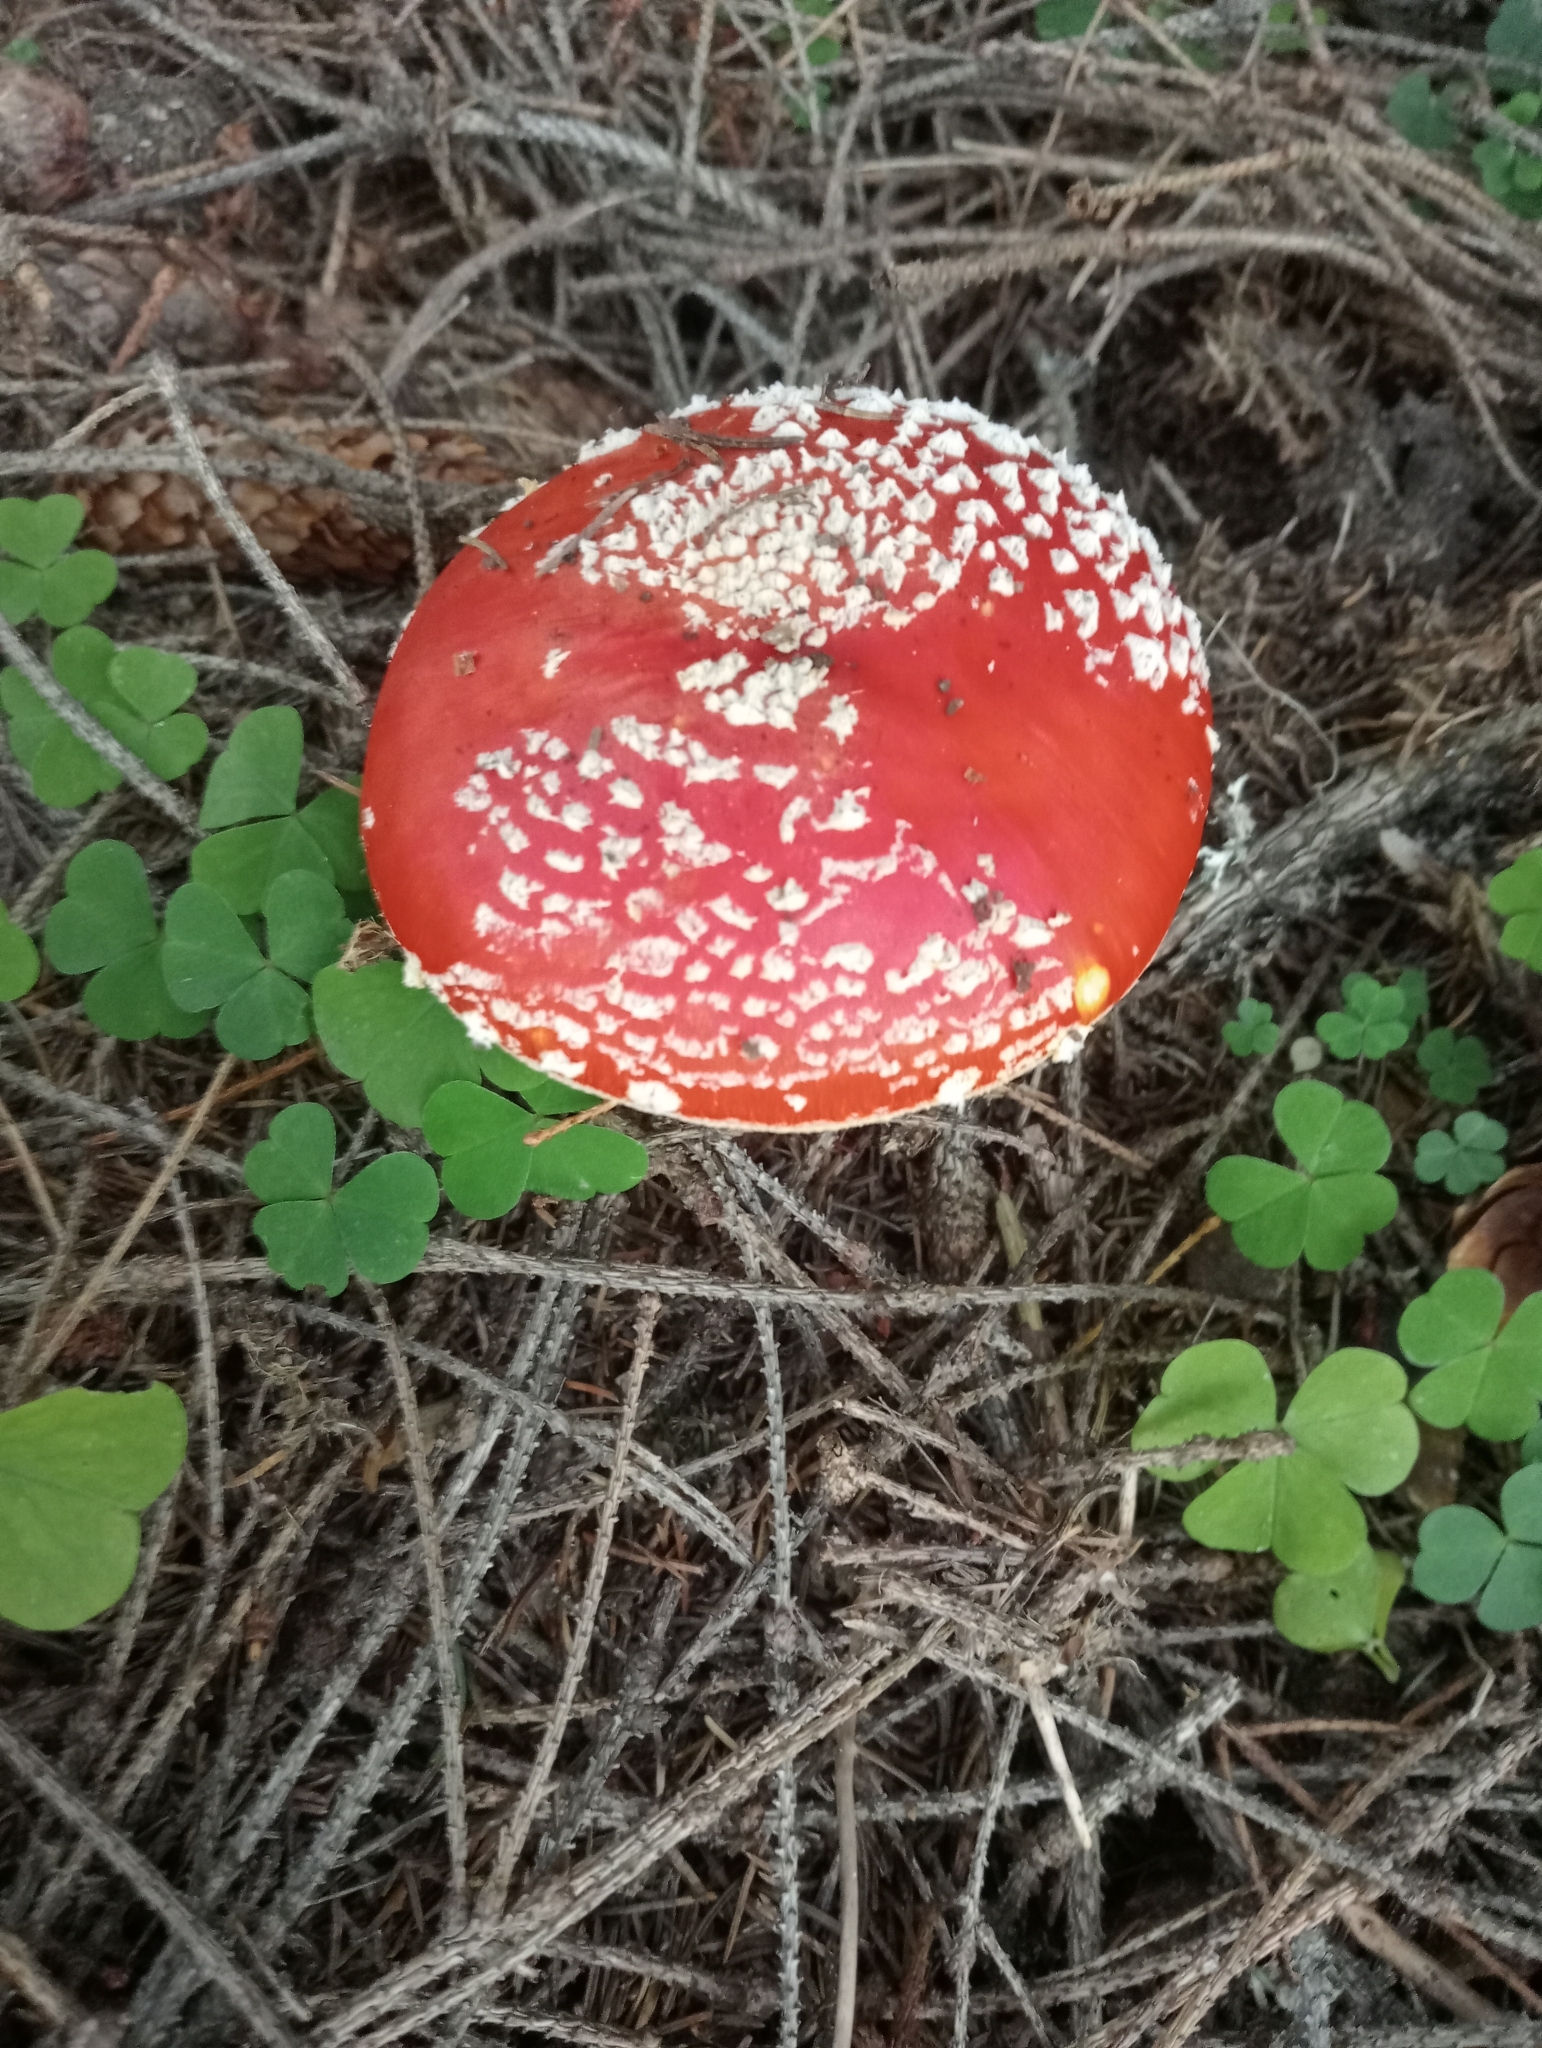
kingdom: Fungi
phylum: Basidiomycota
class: Agaricomycetes
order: Agaricales
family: Amanitaceae
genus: Amanita
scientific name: Amanita muscaria
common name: Fly agaric
